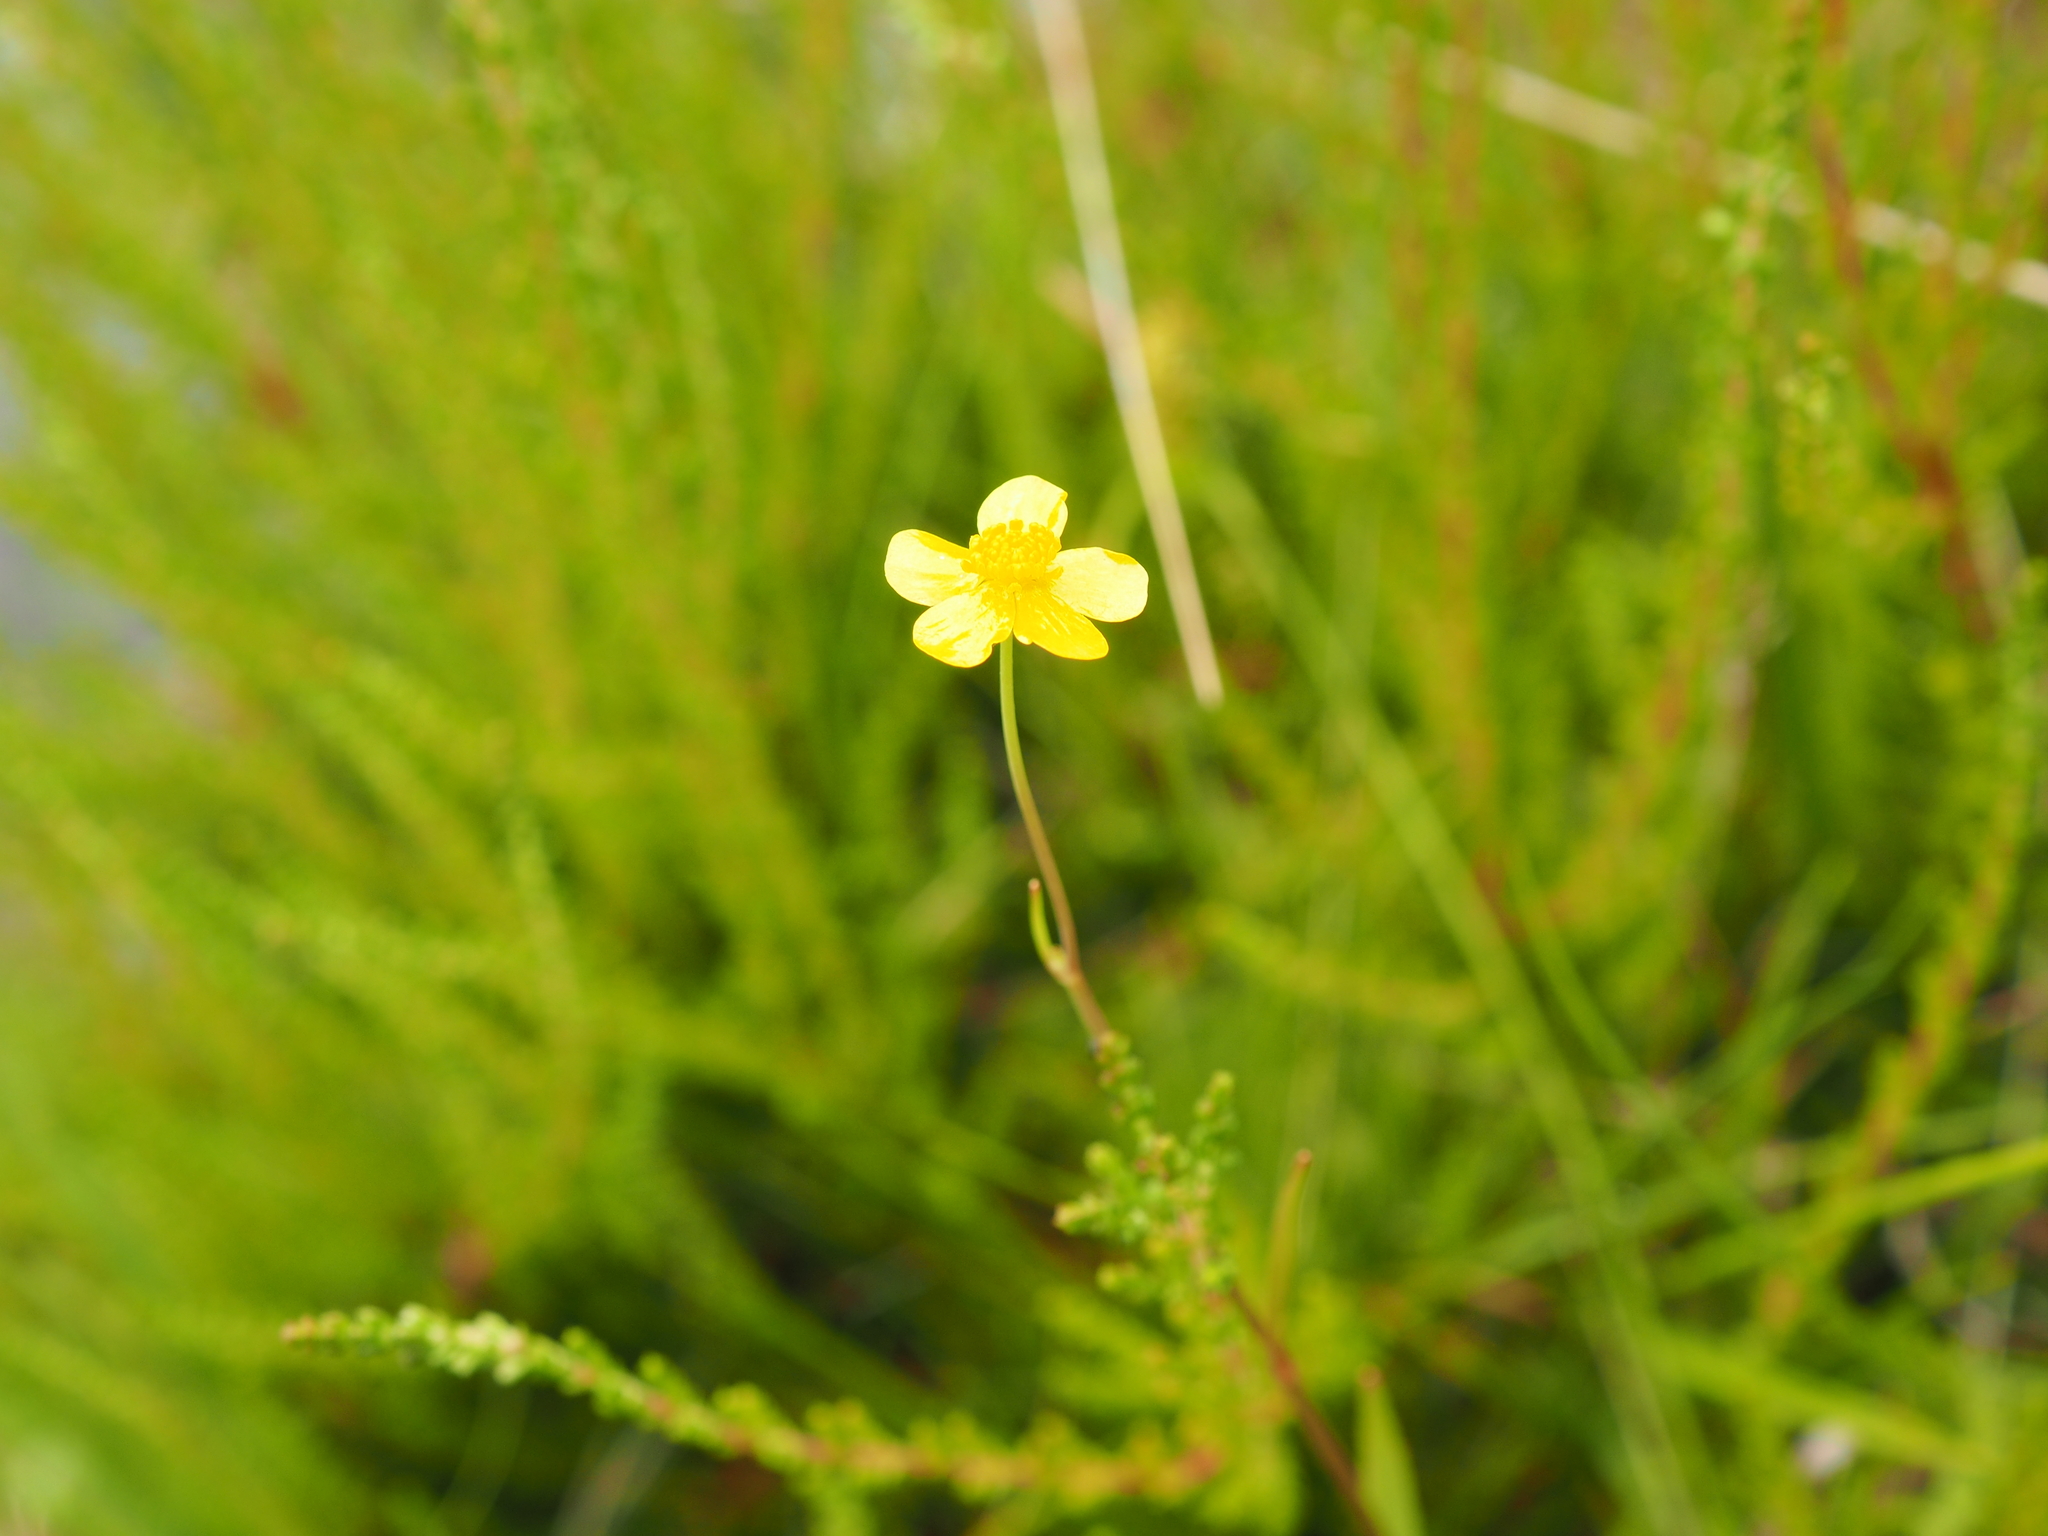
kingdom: Plantae
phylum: Tracheophyta
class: Magnoliopsida
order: Ranunculales
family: Ranunculaceae
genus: Ranunculus
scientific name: Ranunculus flammula
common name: Lesser spearwort
